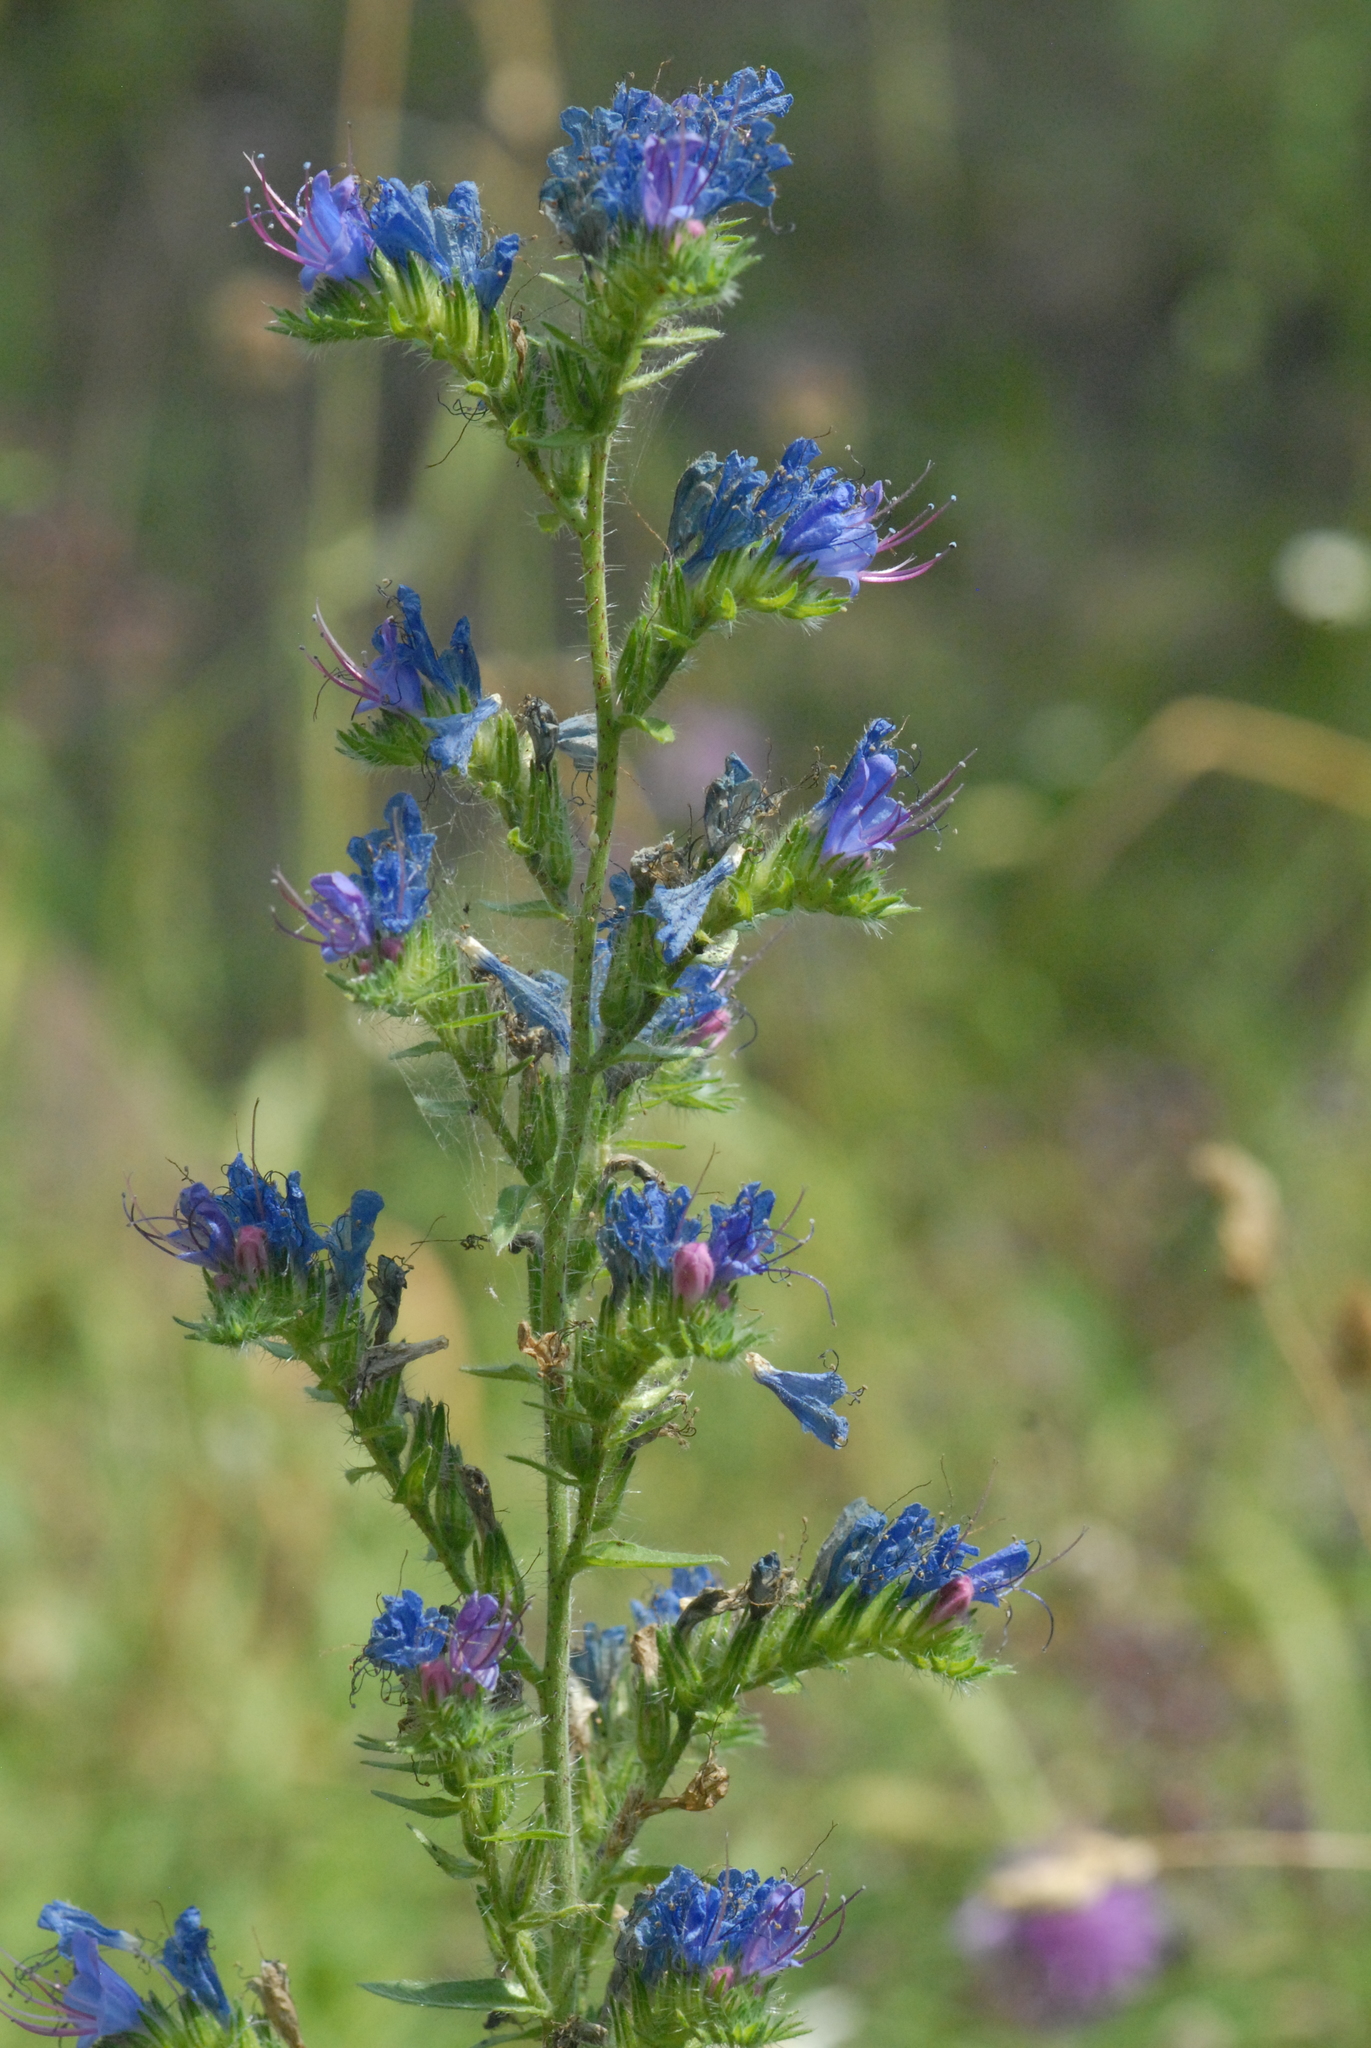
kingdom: Plantae
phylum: Tracheophyta
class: Magnoliopsida
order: Boraginales
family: Boraginaceae
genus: Echium
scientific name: Echium vulgare
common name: Common viper's bugloss
